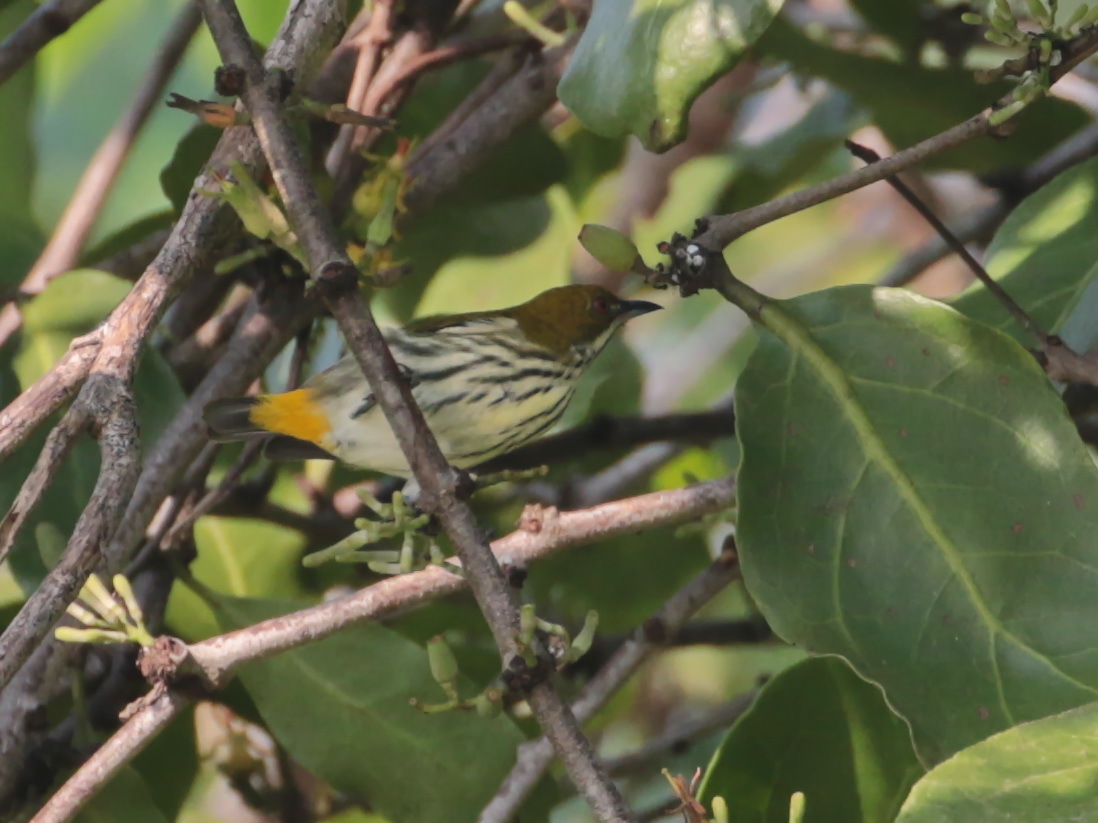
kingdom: Animalia
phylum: Chordata
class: Aves
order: Passeriformes
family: Dicaeidae
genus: Dicaeum
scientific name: Dicaeum chrysorrheum
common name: Yellow-vented flowerpecker
